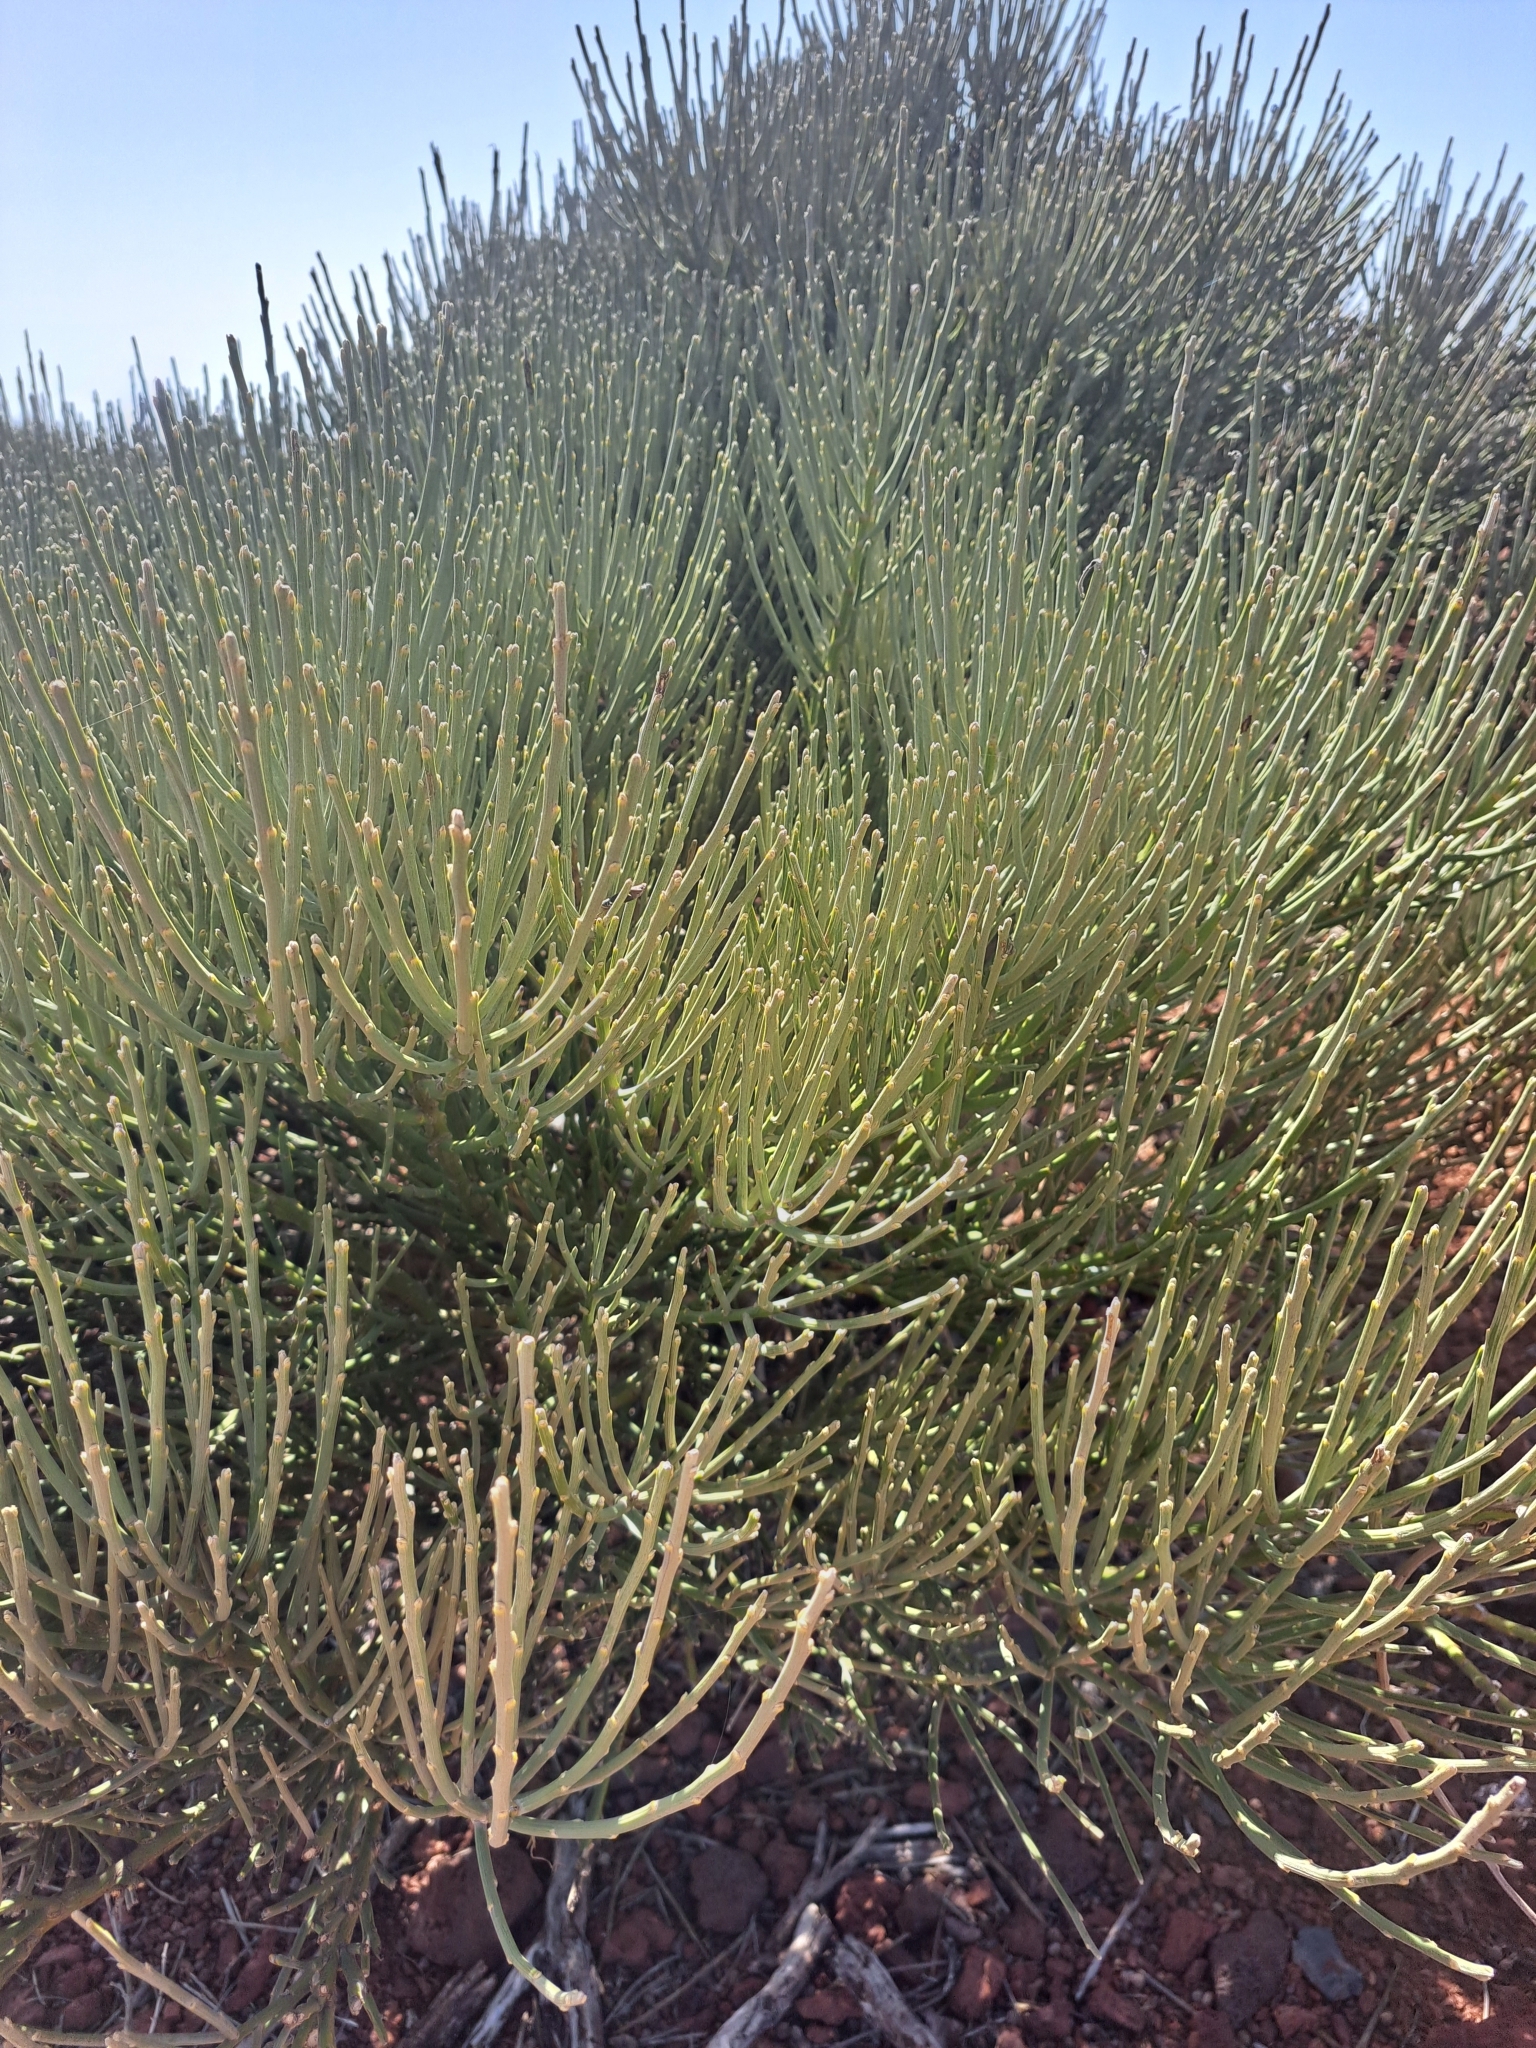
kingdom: Plantae
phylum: Tracheophyta
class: Magnoliopsida
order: Fabales
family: Fabaceae
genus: Cytisus
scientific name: Cytisus supranubius
